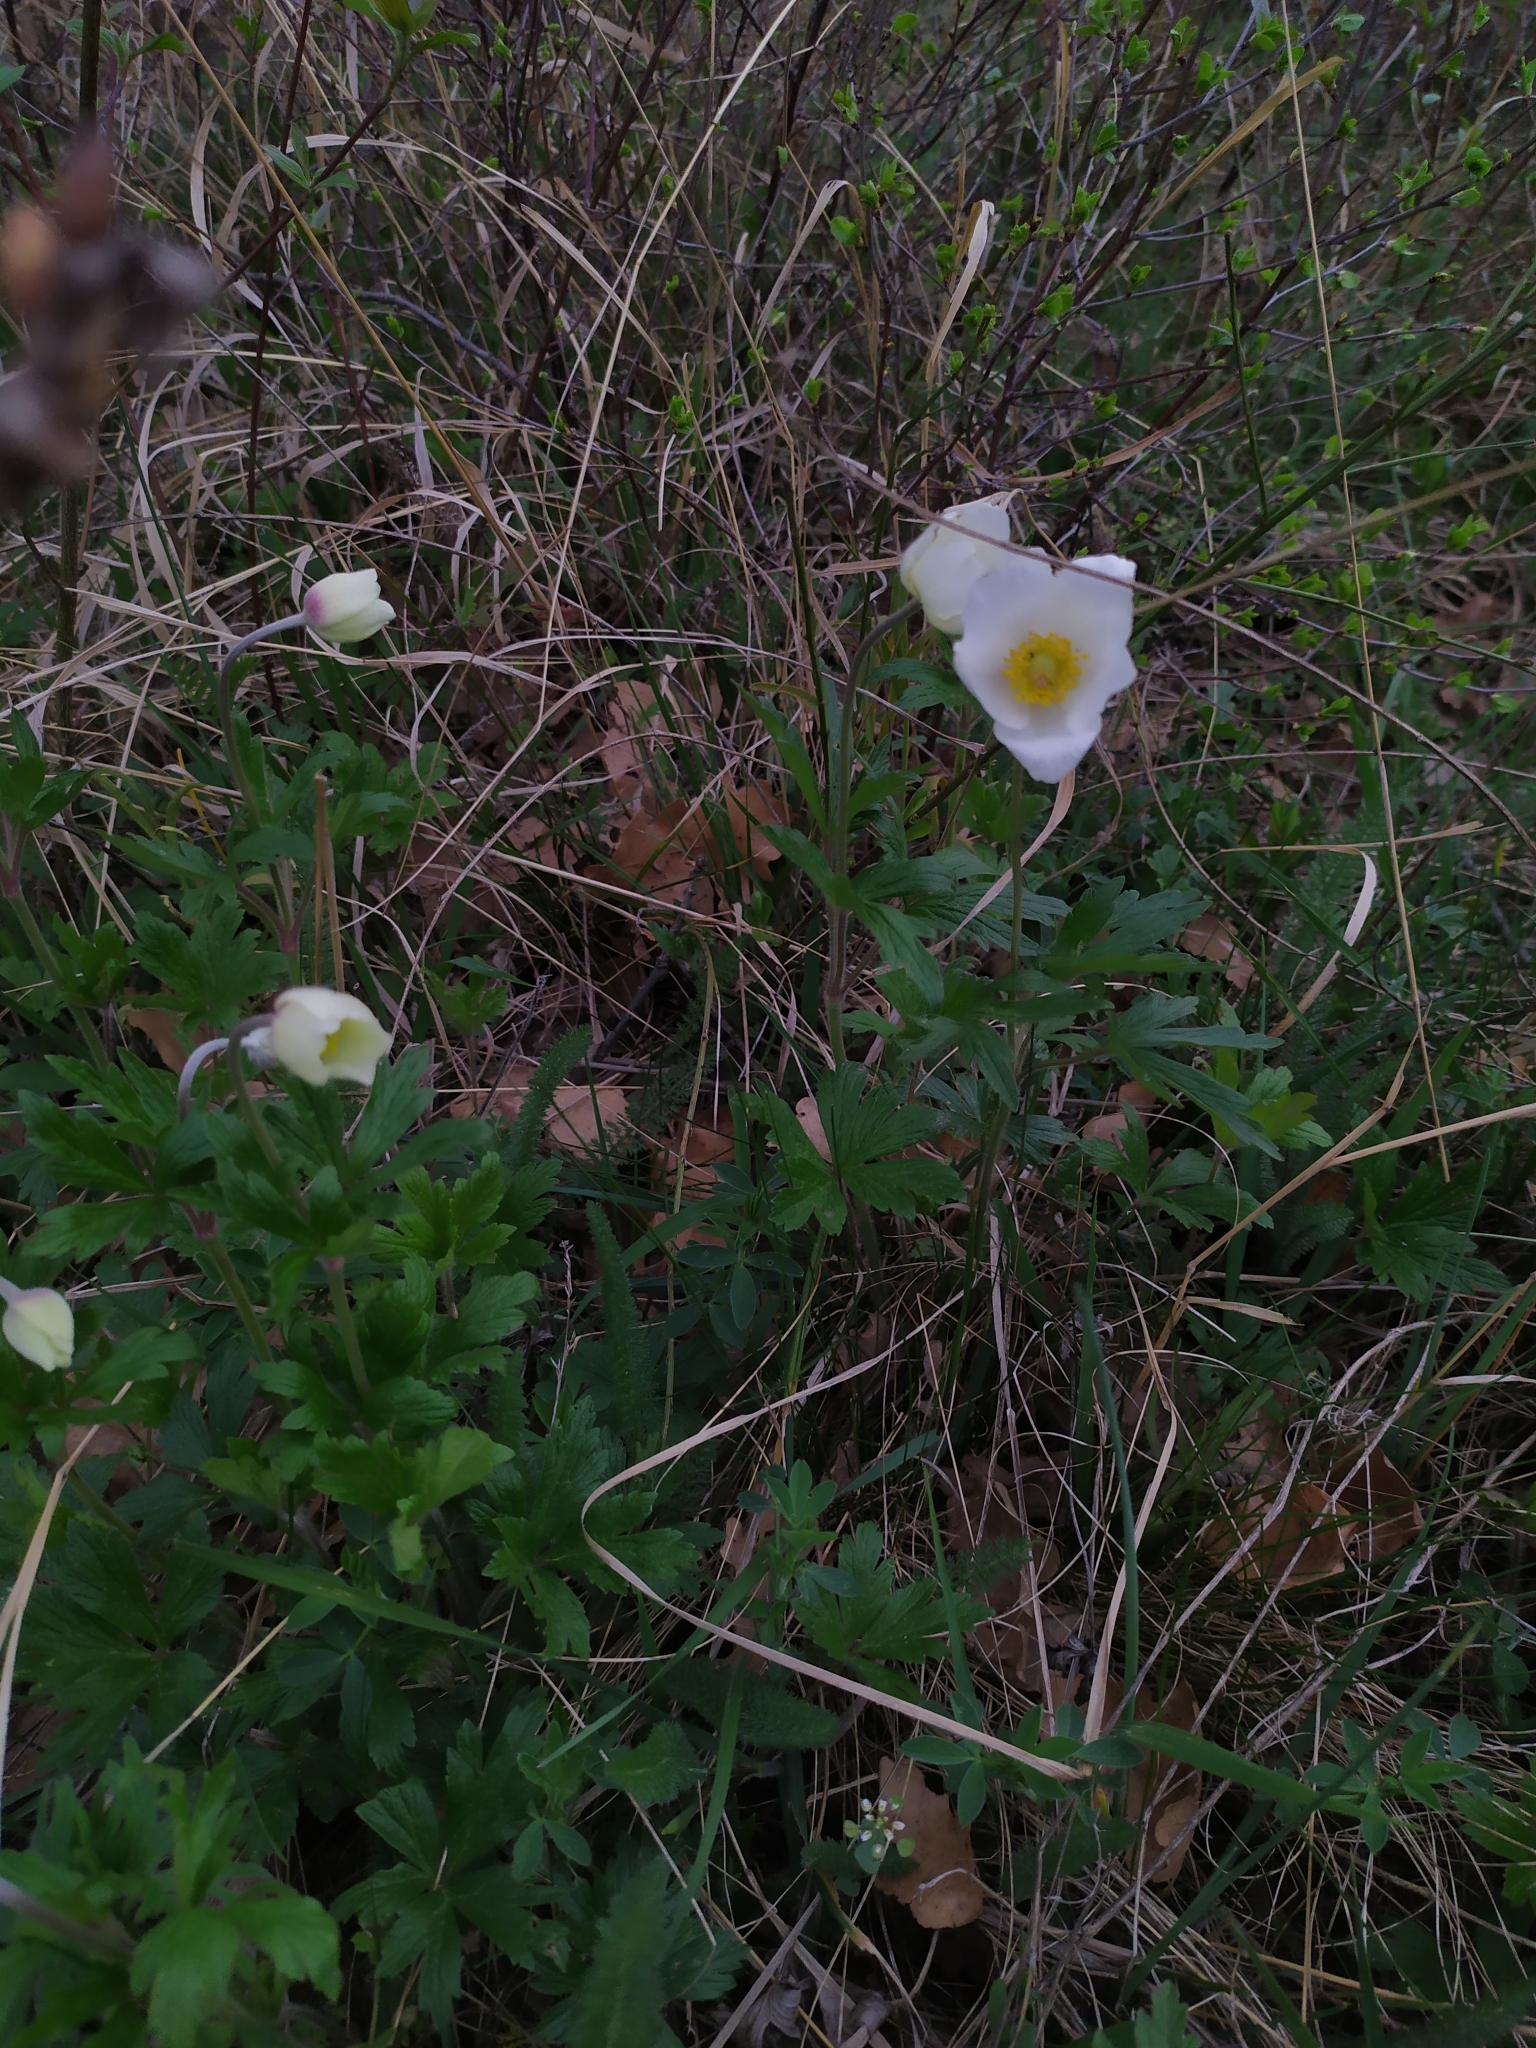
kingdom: Plantae
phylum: Tracheophyta
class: Magnoliopsida
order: Ranunculales
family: Ranunculaceae
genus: Anemone
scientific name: Anemone sylvestris
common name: Snowdrop anemone
